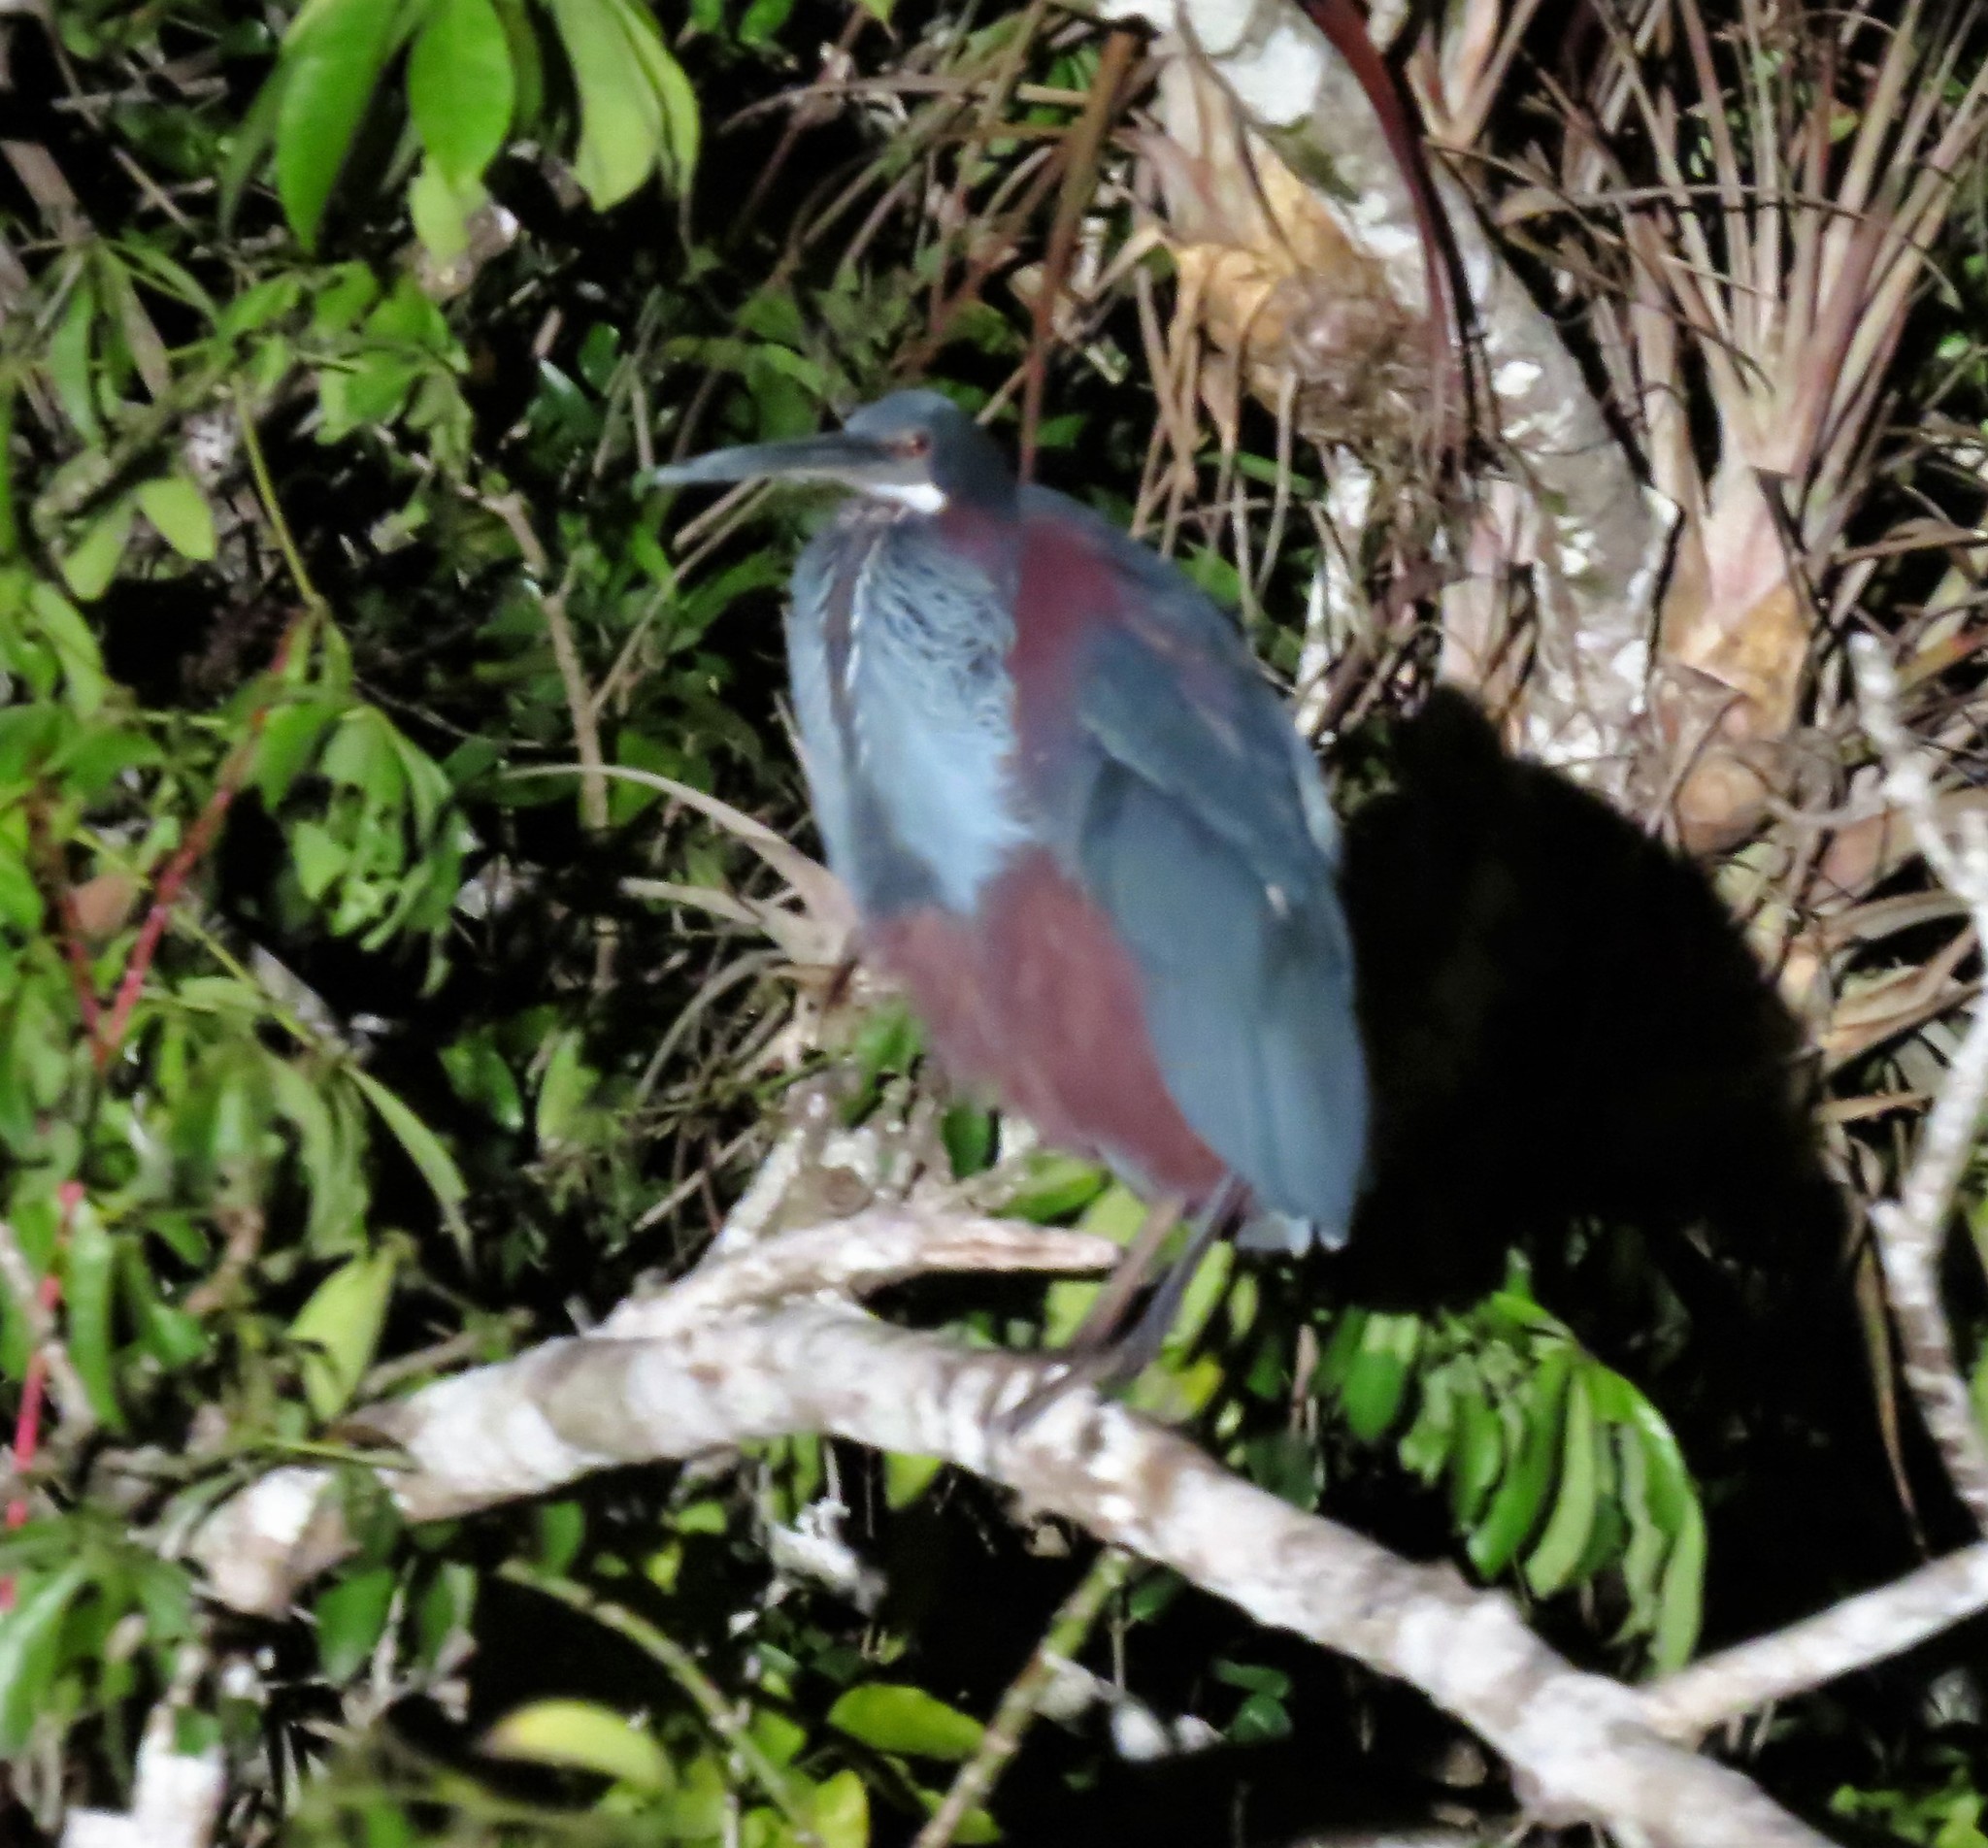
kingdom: Animalia
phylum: Chordata
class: Aves
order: Pelecaniformes
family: Ardeidae
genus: Agamia
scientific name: Agamia agami
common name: Agami heron
